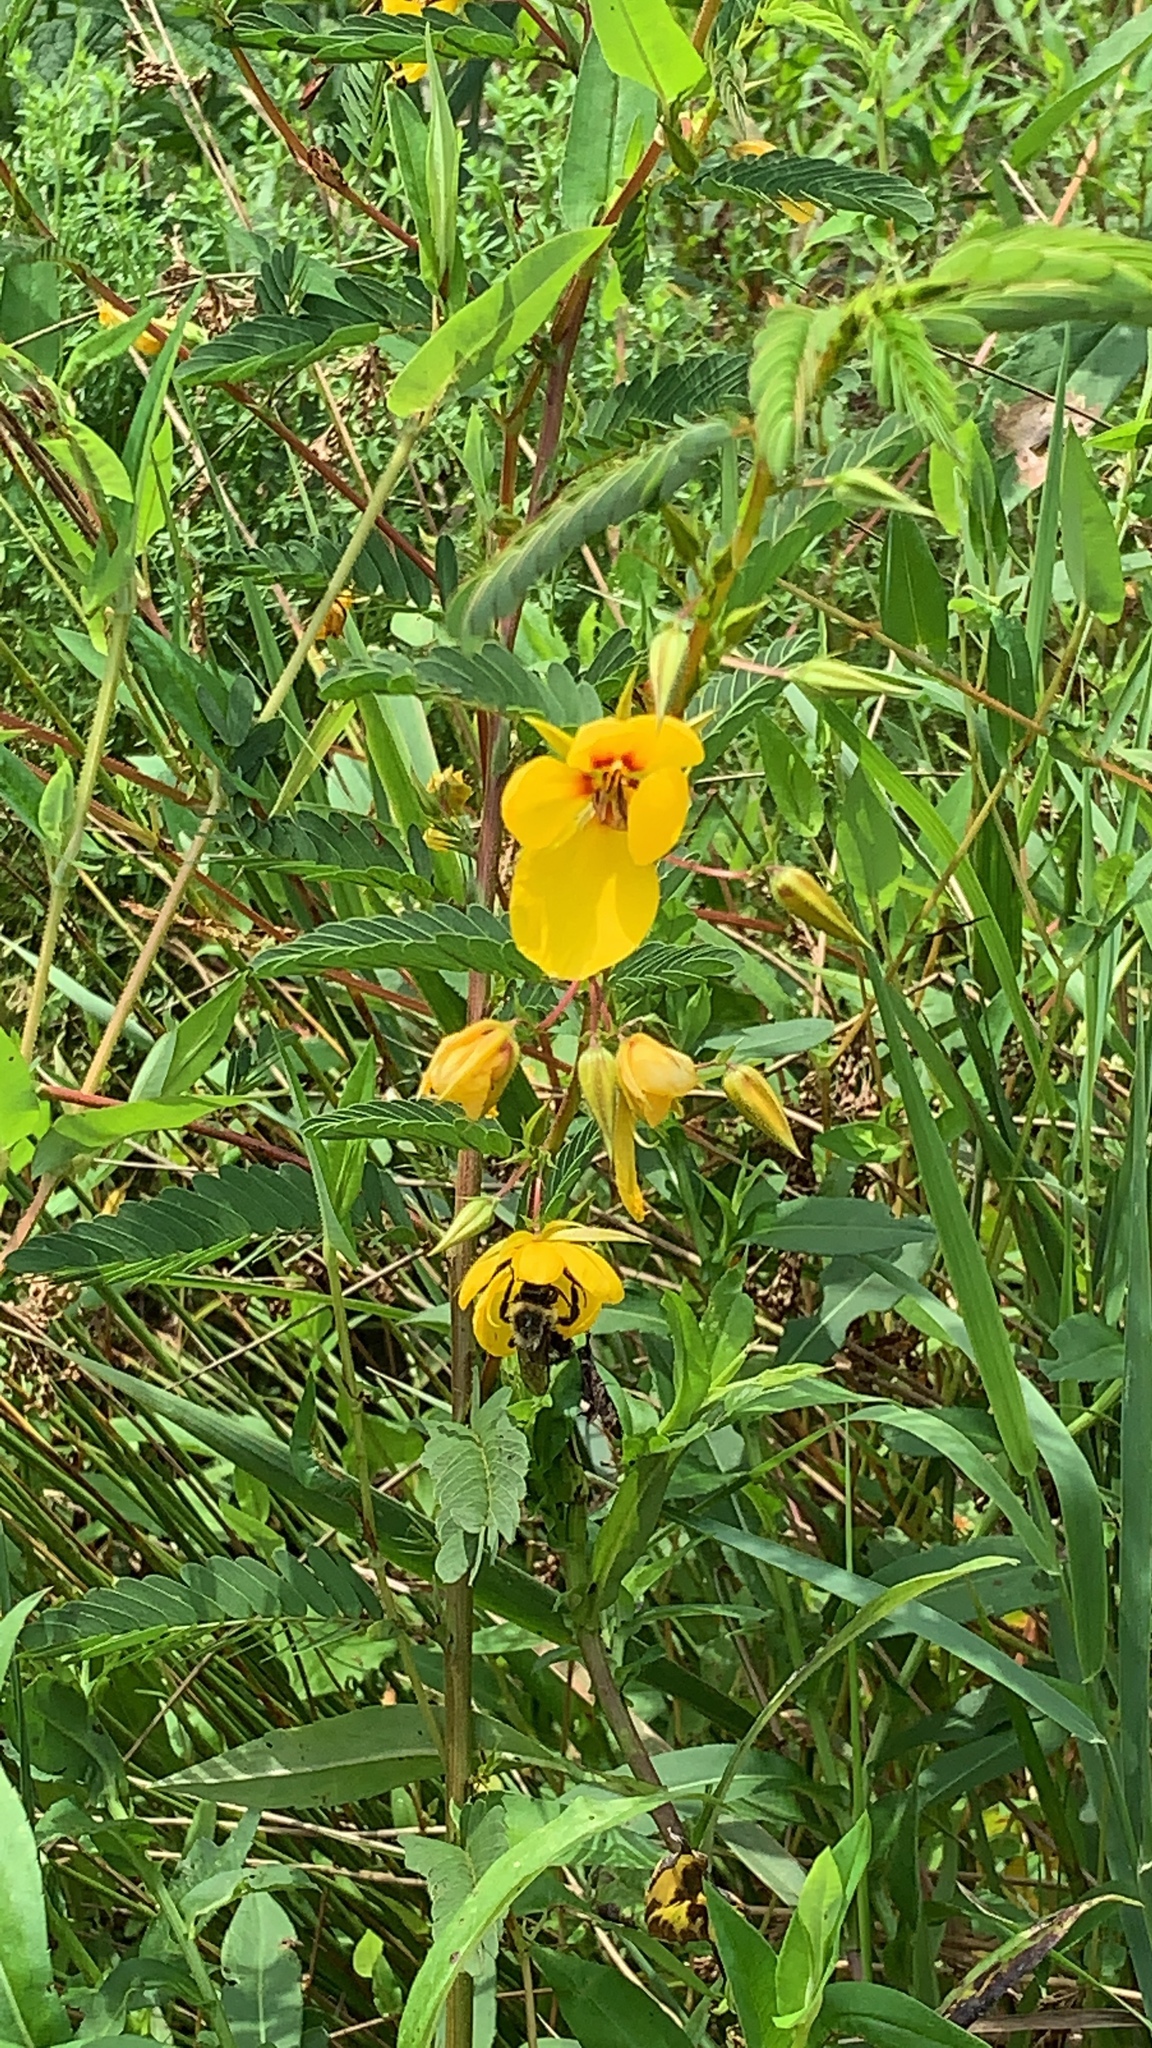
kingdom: Plantae
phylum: Tracheophyta
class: Magnoliopsida
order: Fabales
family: Fabaceae
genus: Chamaecrista
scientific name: Chamaecrista fasciculata
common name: Golden cassia
